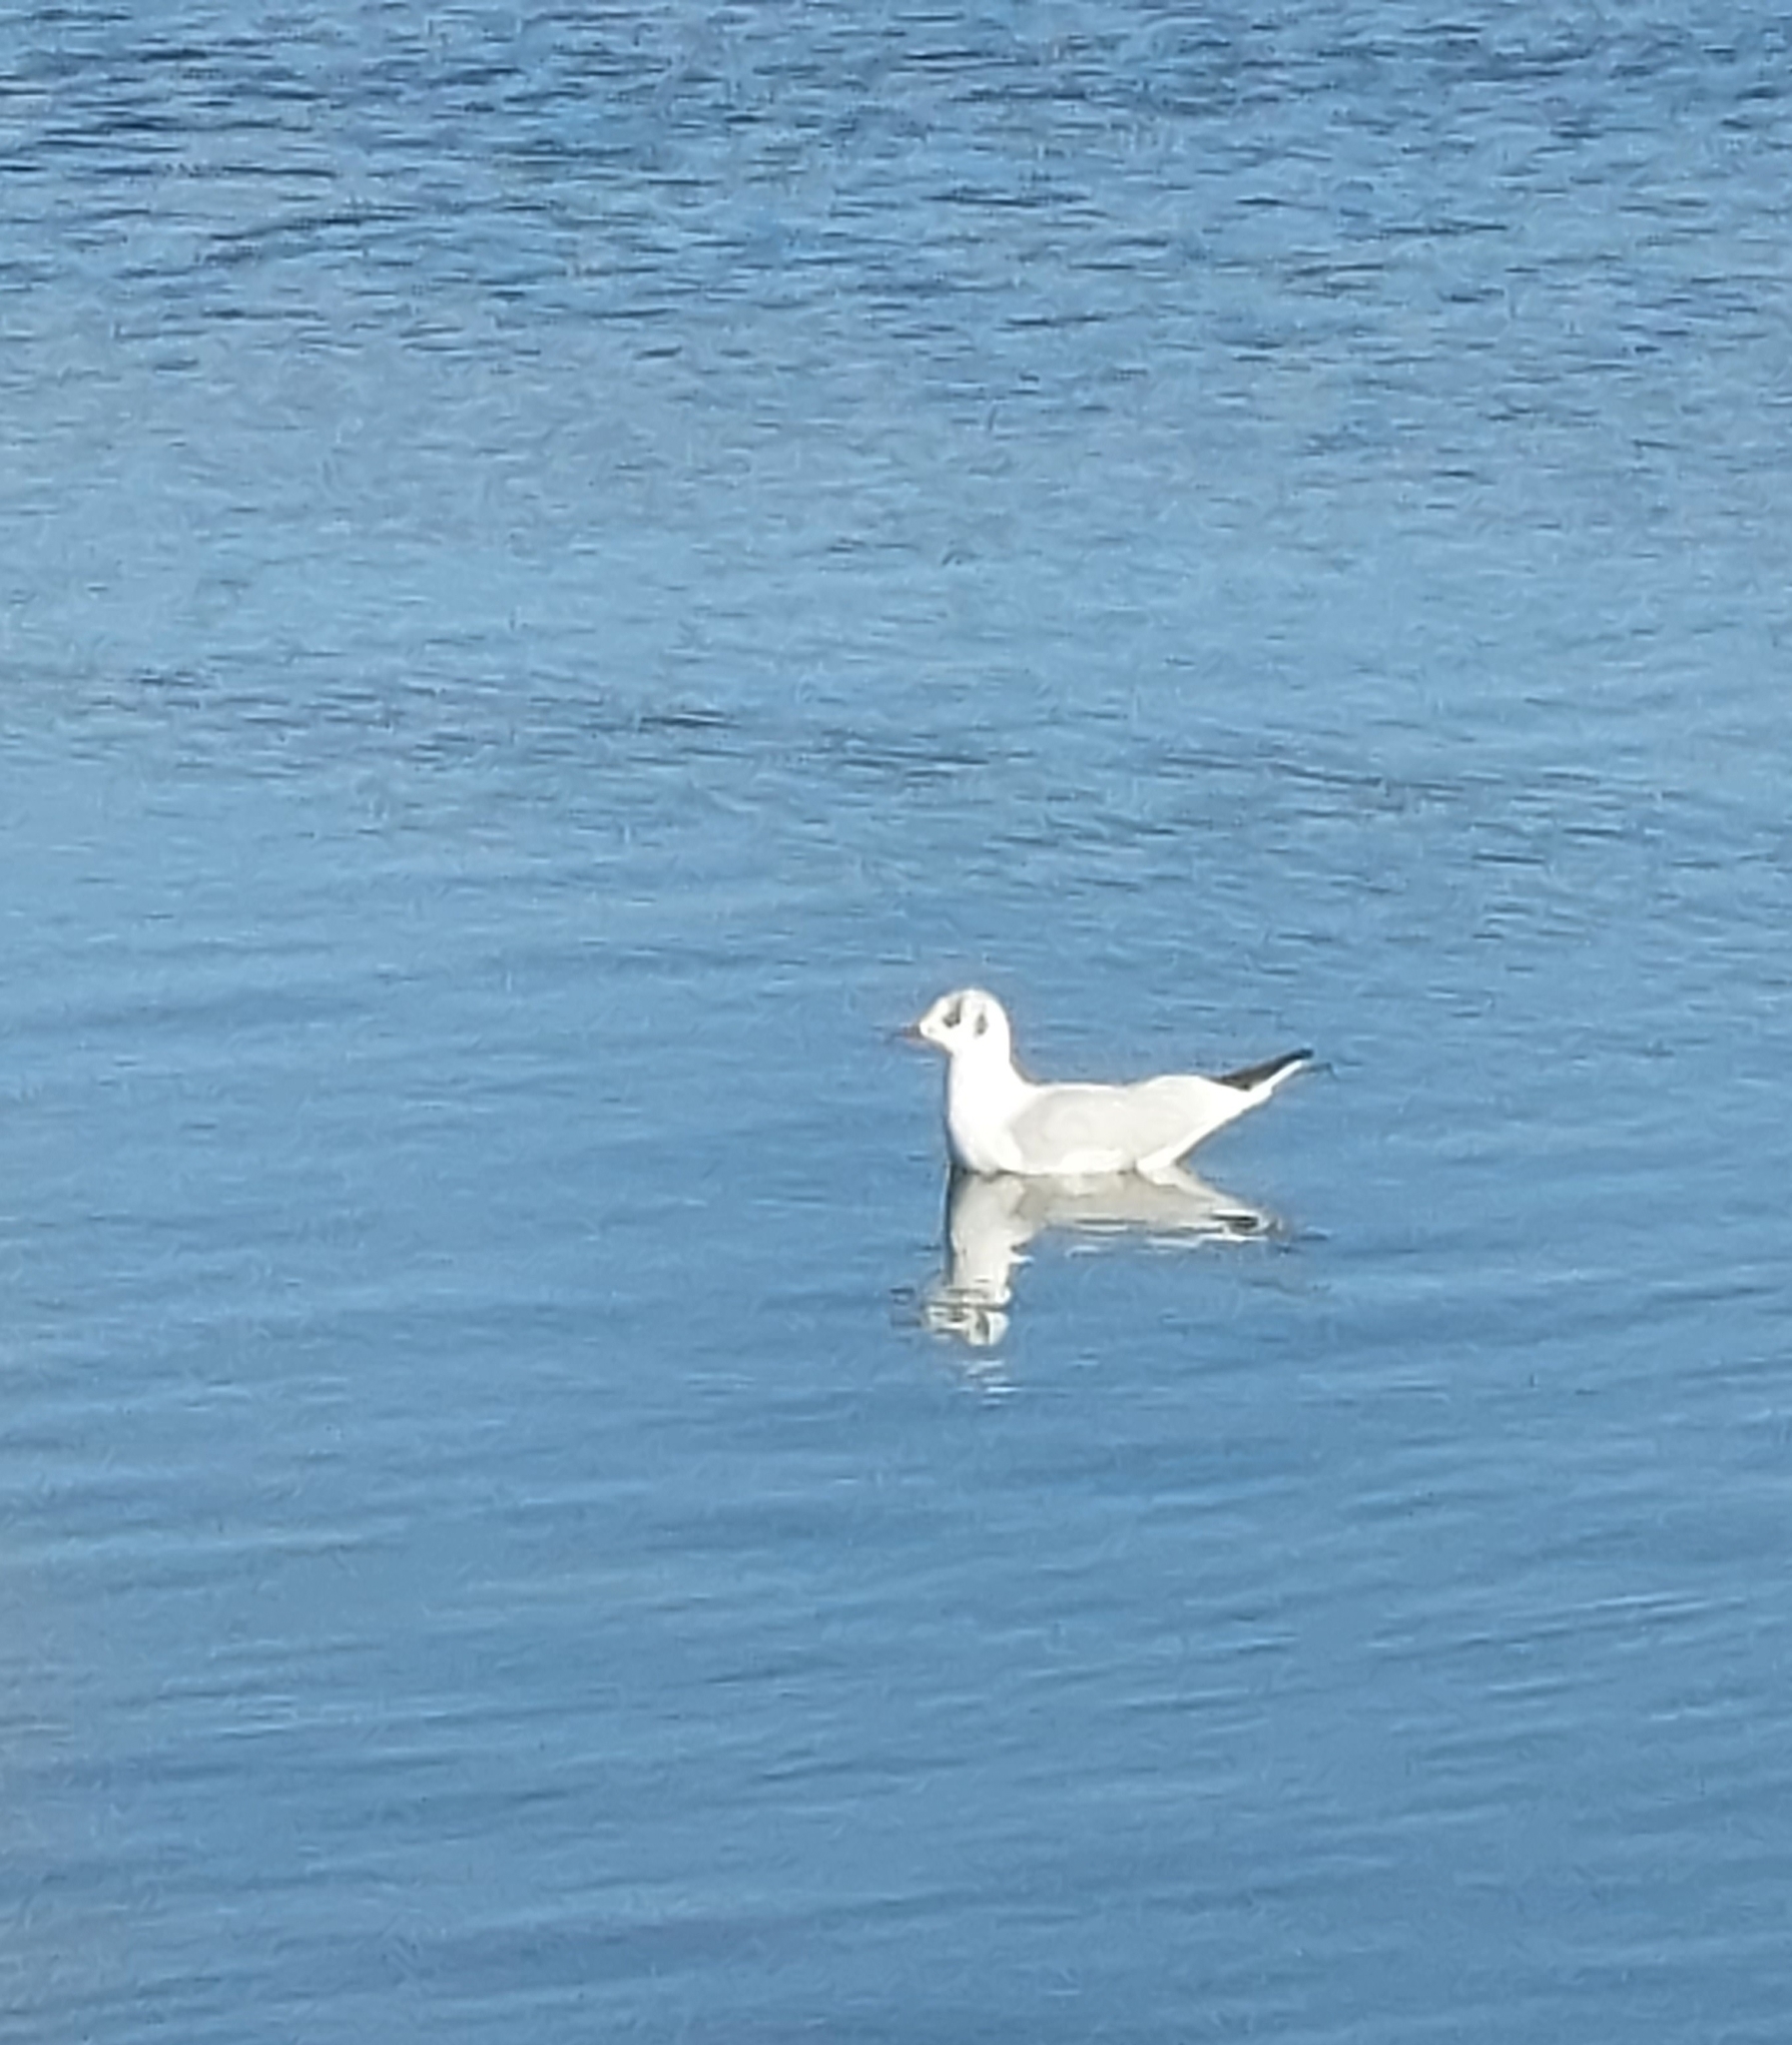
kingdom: Animalia
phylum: Chordata
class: Aves
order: Charadriiformes
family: Laridae
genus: Chroicocephalus
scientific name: Chroicocephalus ridibundus
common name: Black-headed gull
